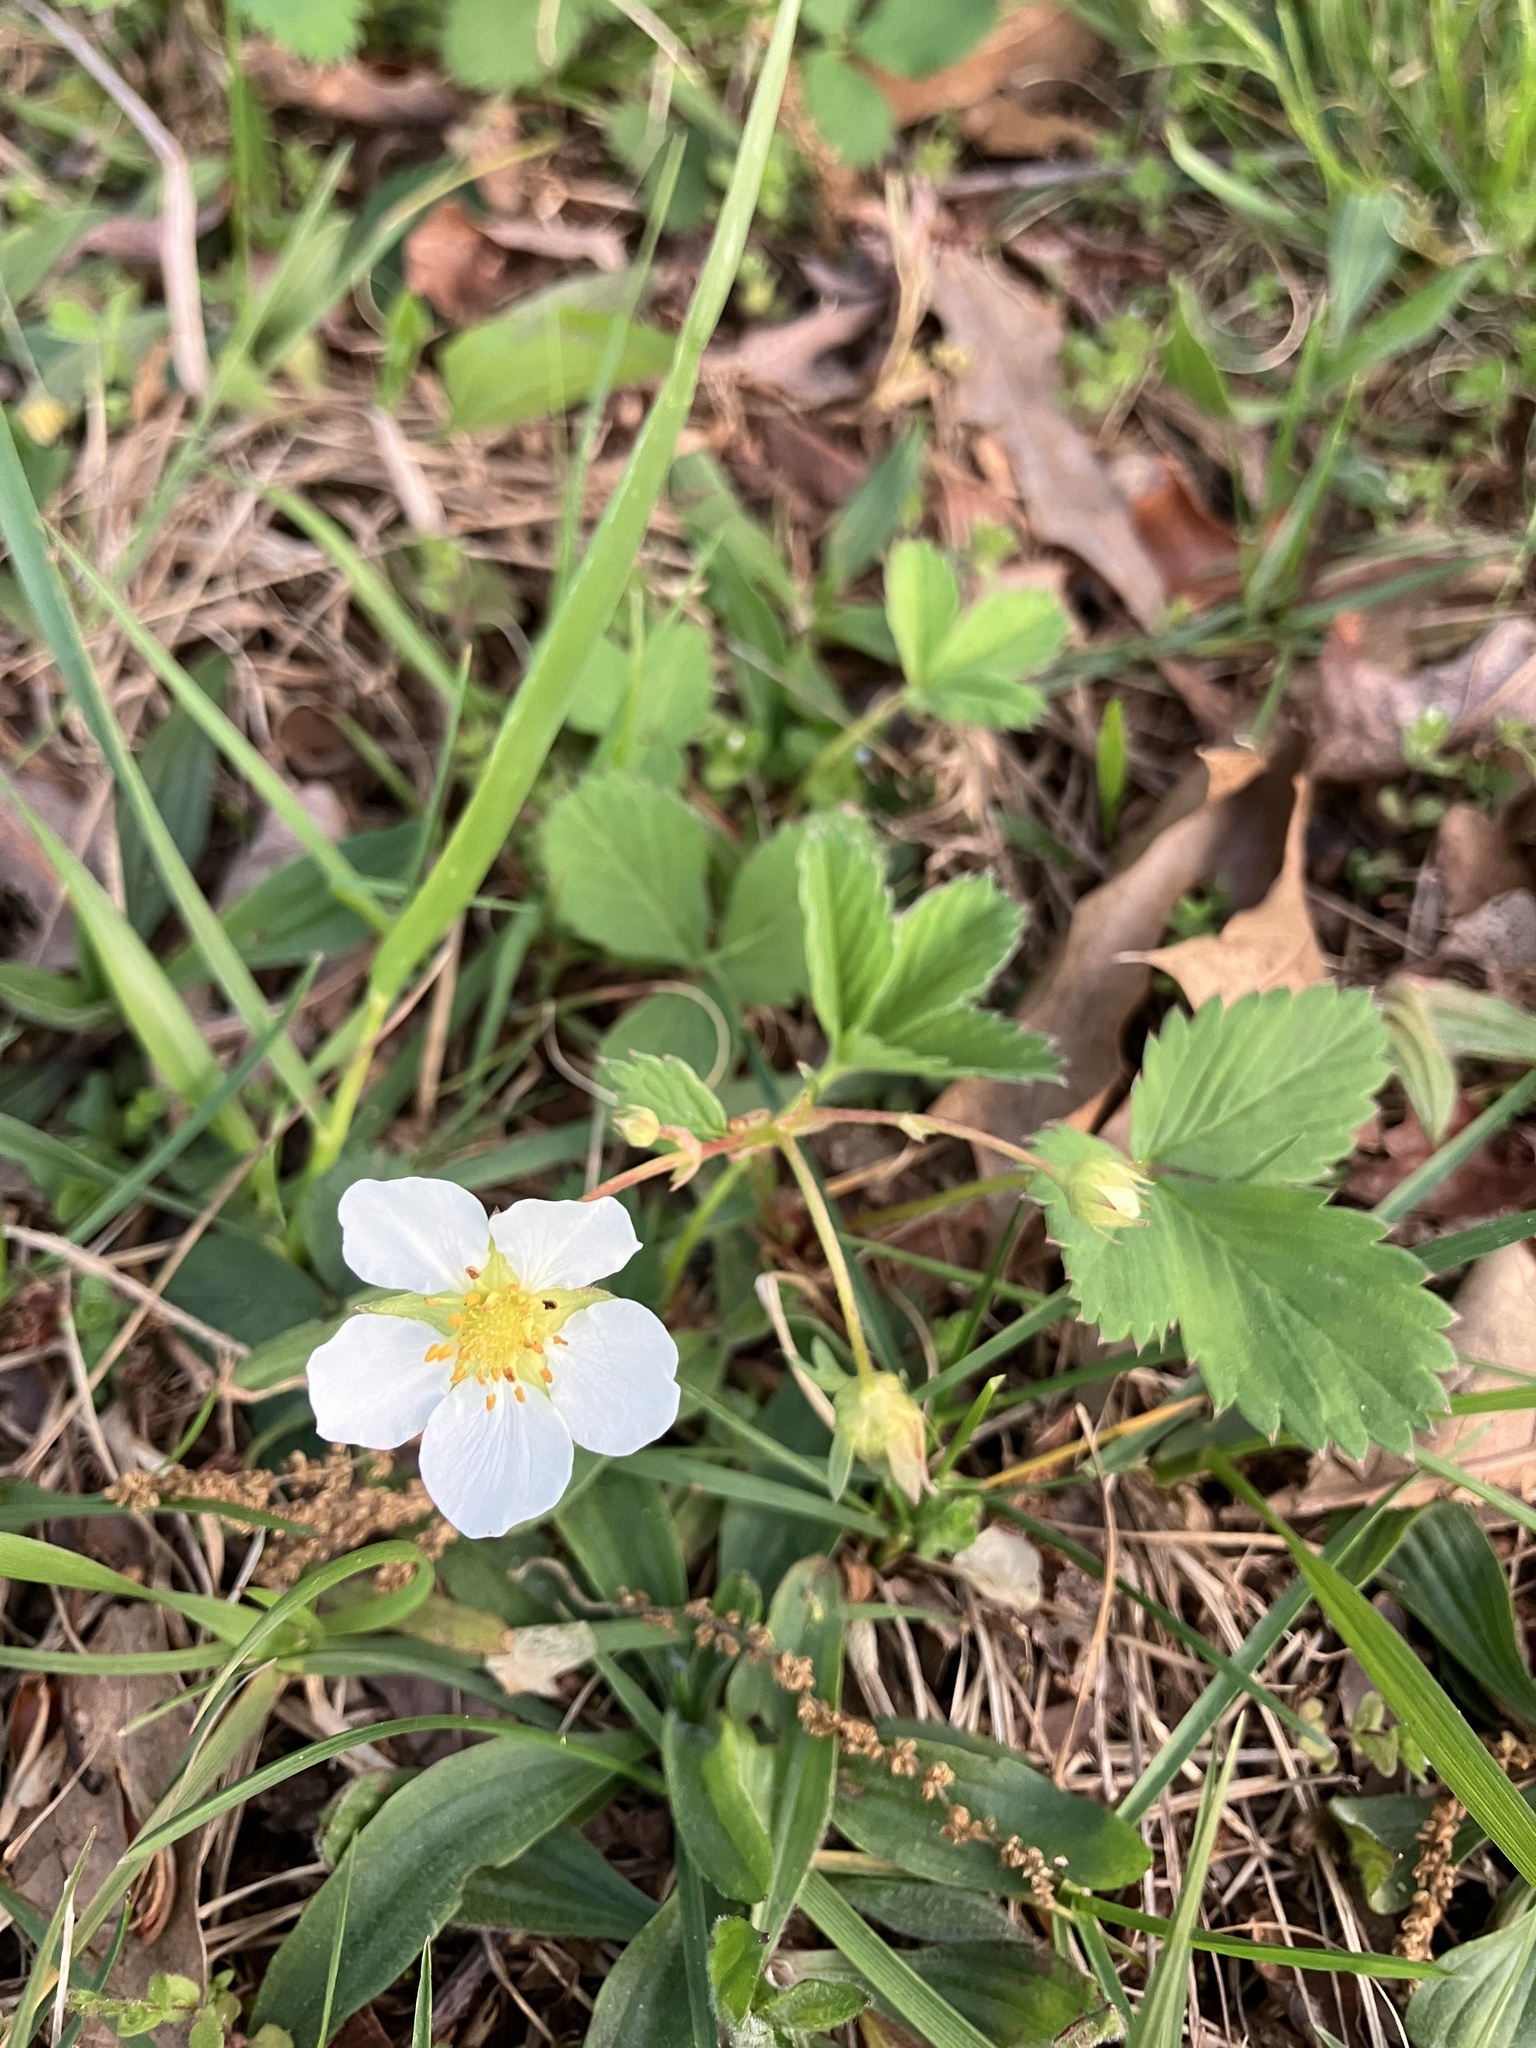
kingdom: Plantae
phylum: Tracheophyta
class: Magnoliopsida
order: Rosales
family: Rosaceae
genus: Fragaria
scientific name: Fragaria virginiana
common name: Thickleaved wild strawberry
